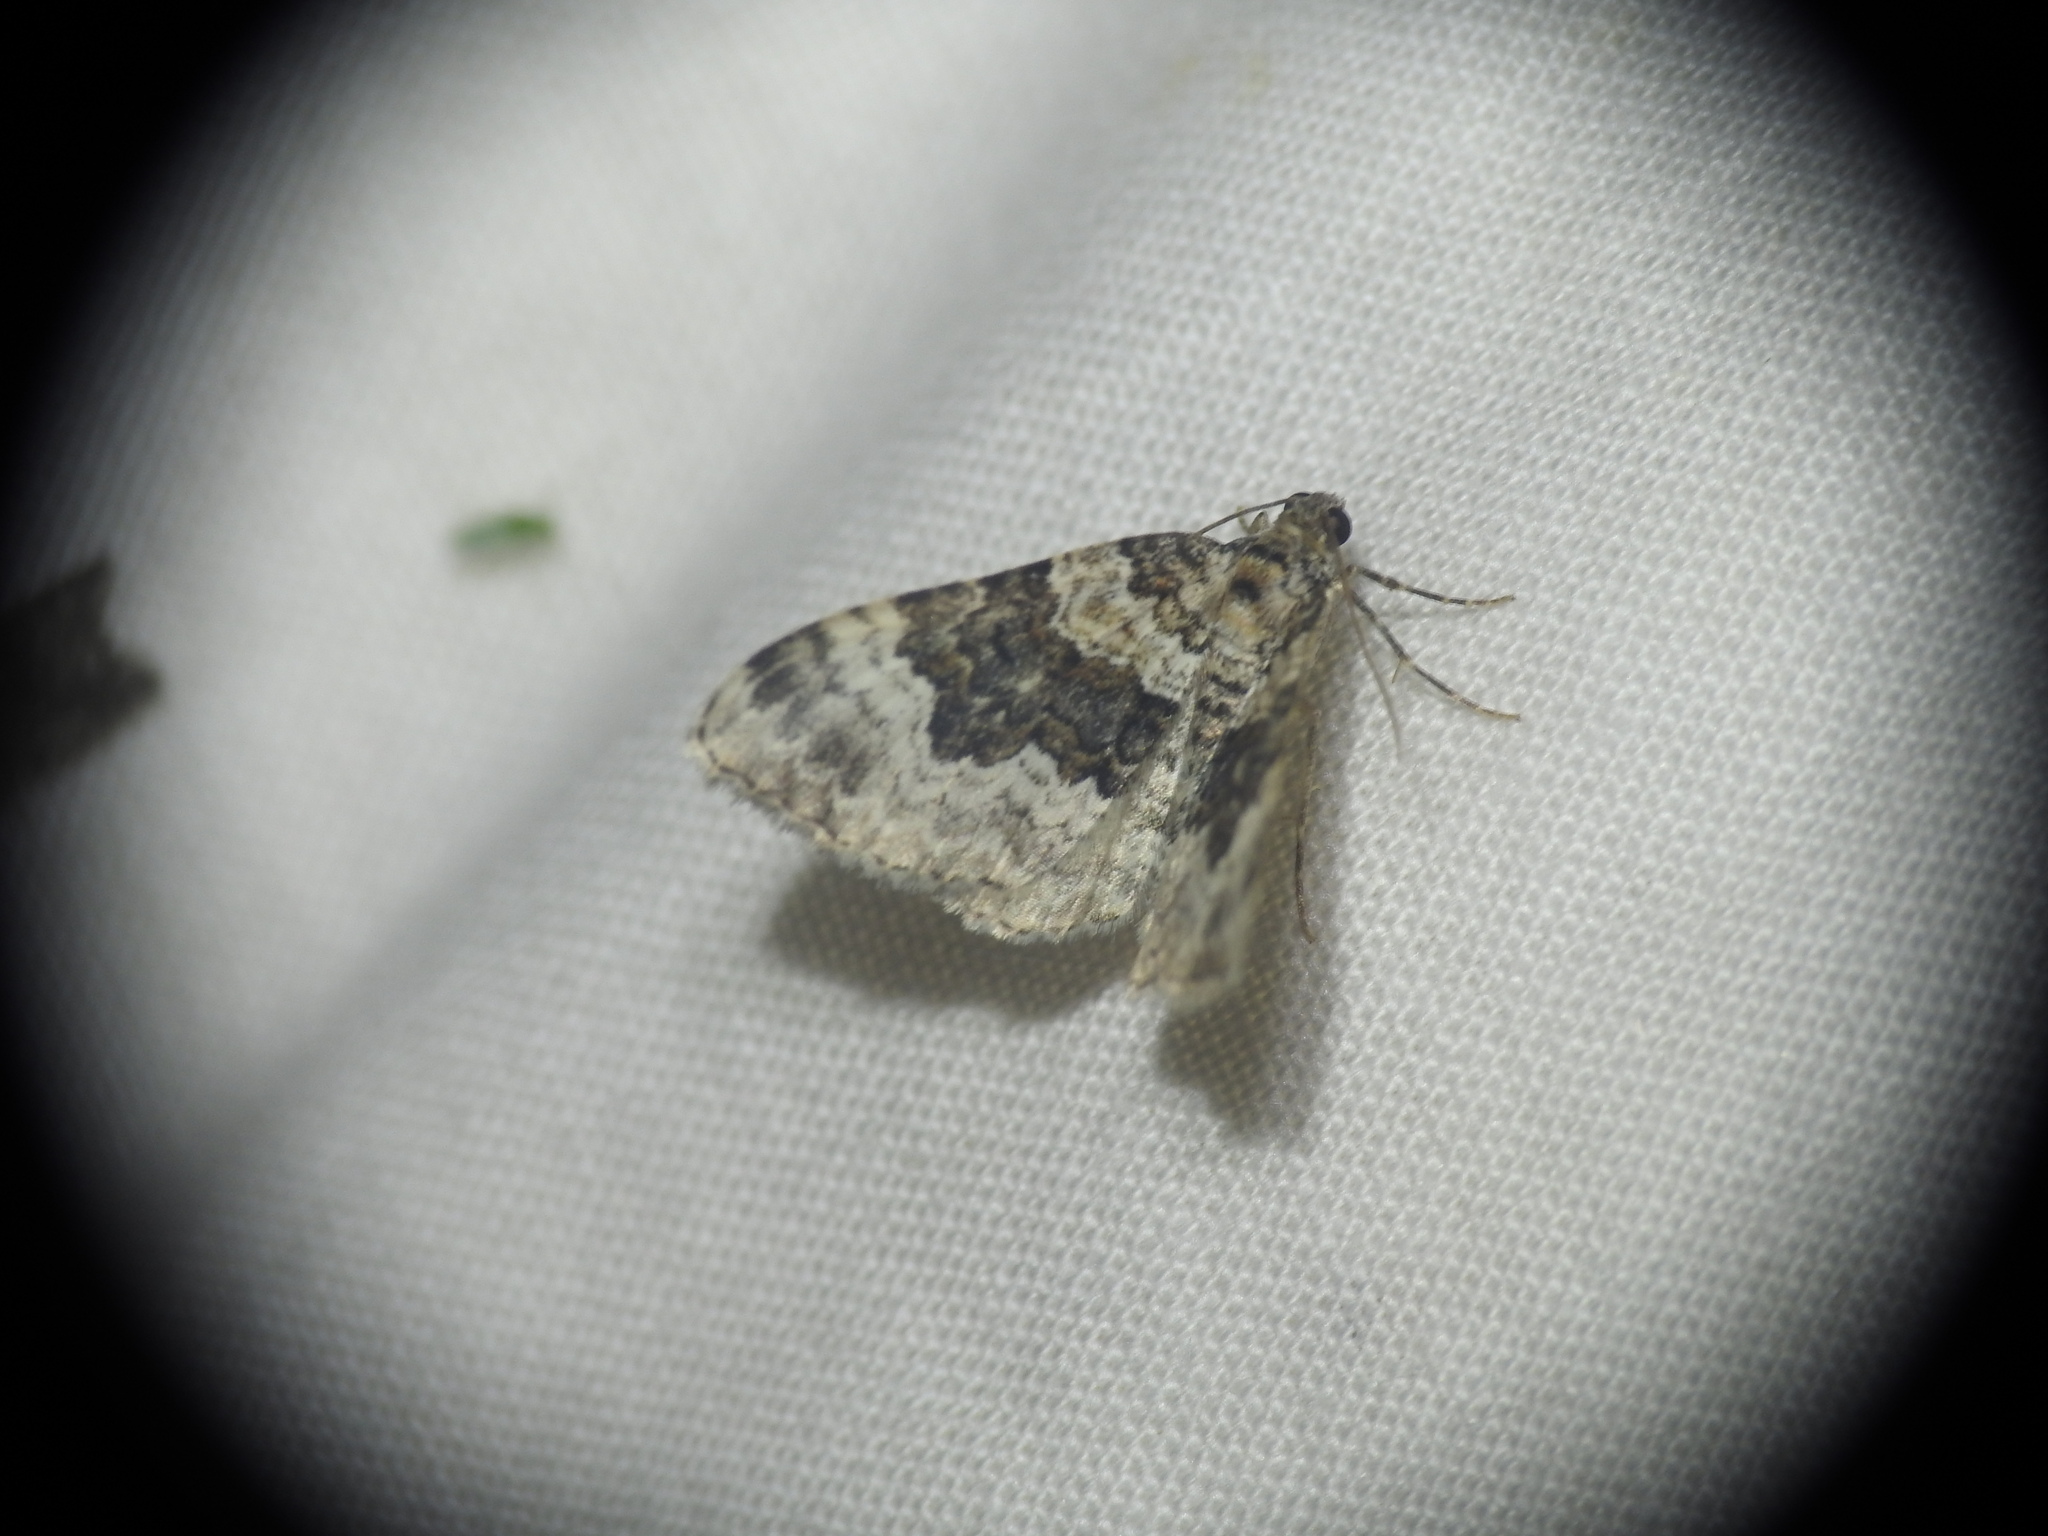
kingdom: Animalia
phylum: Arthropoda
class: Insecta
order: Lepidoptera
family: Geometridae
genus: Epirrhoe
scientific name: Epirrhoe galiata
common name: Galium carpet
